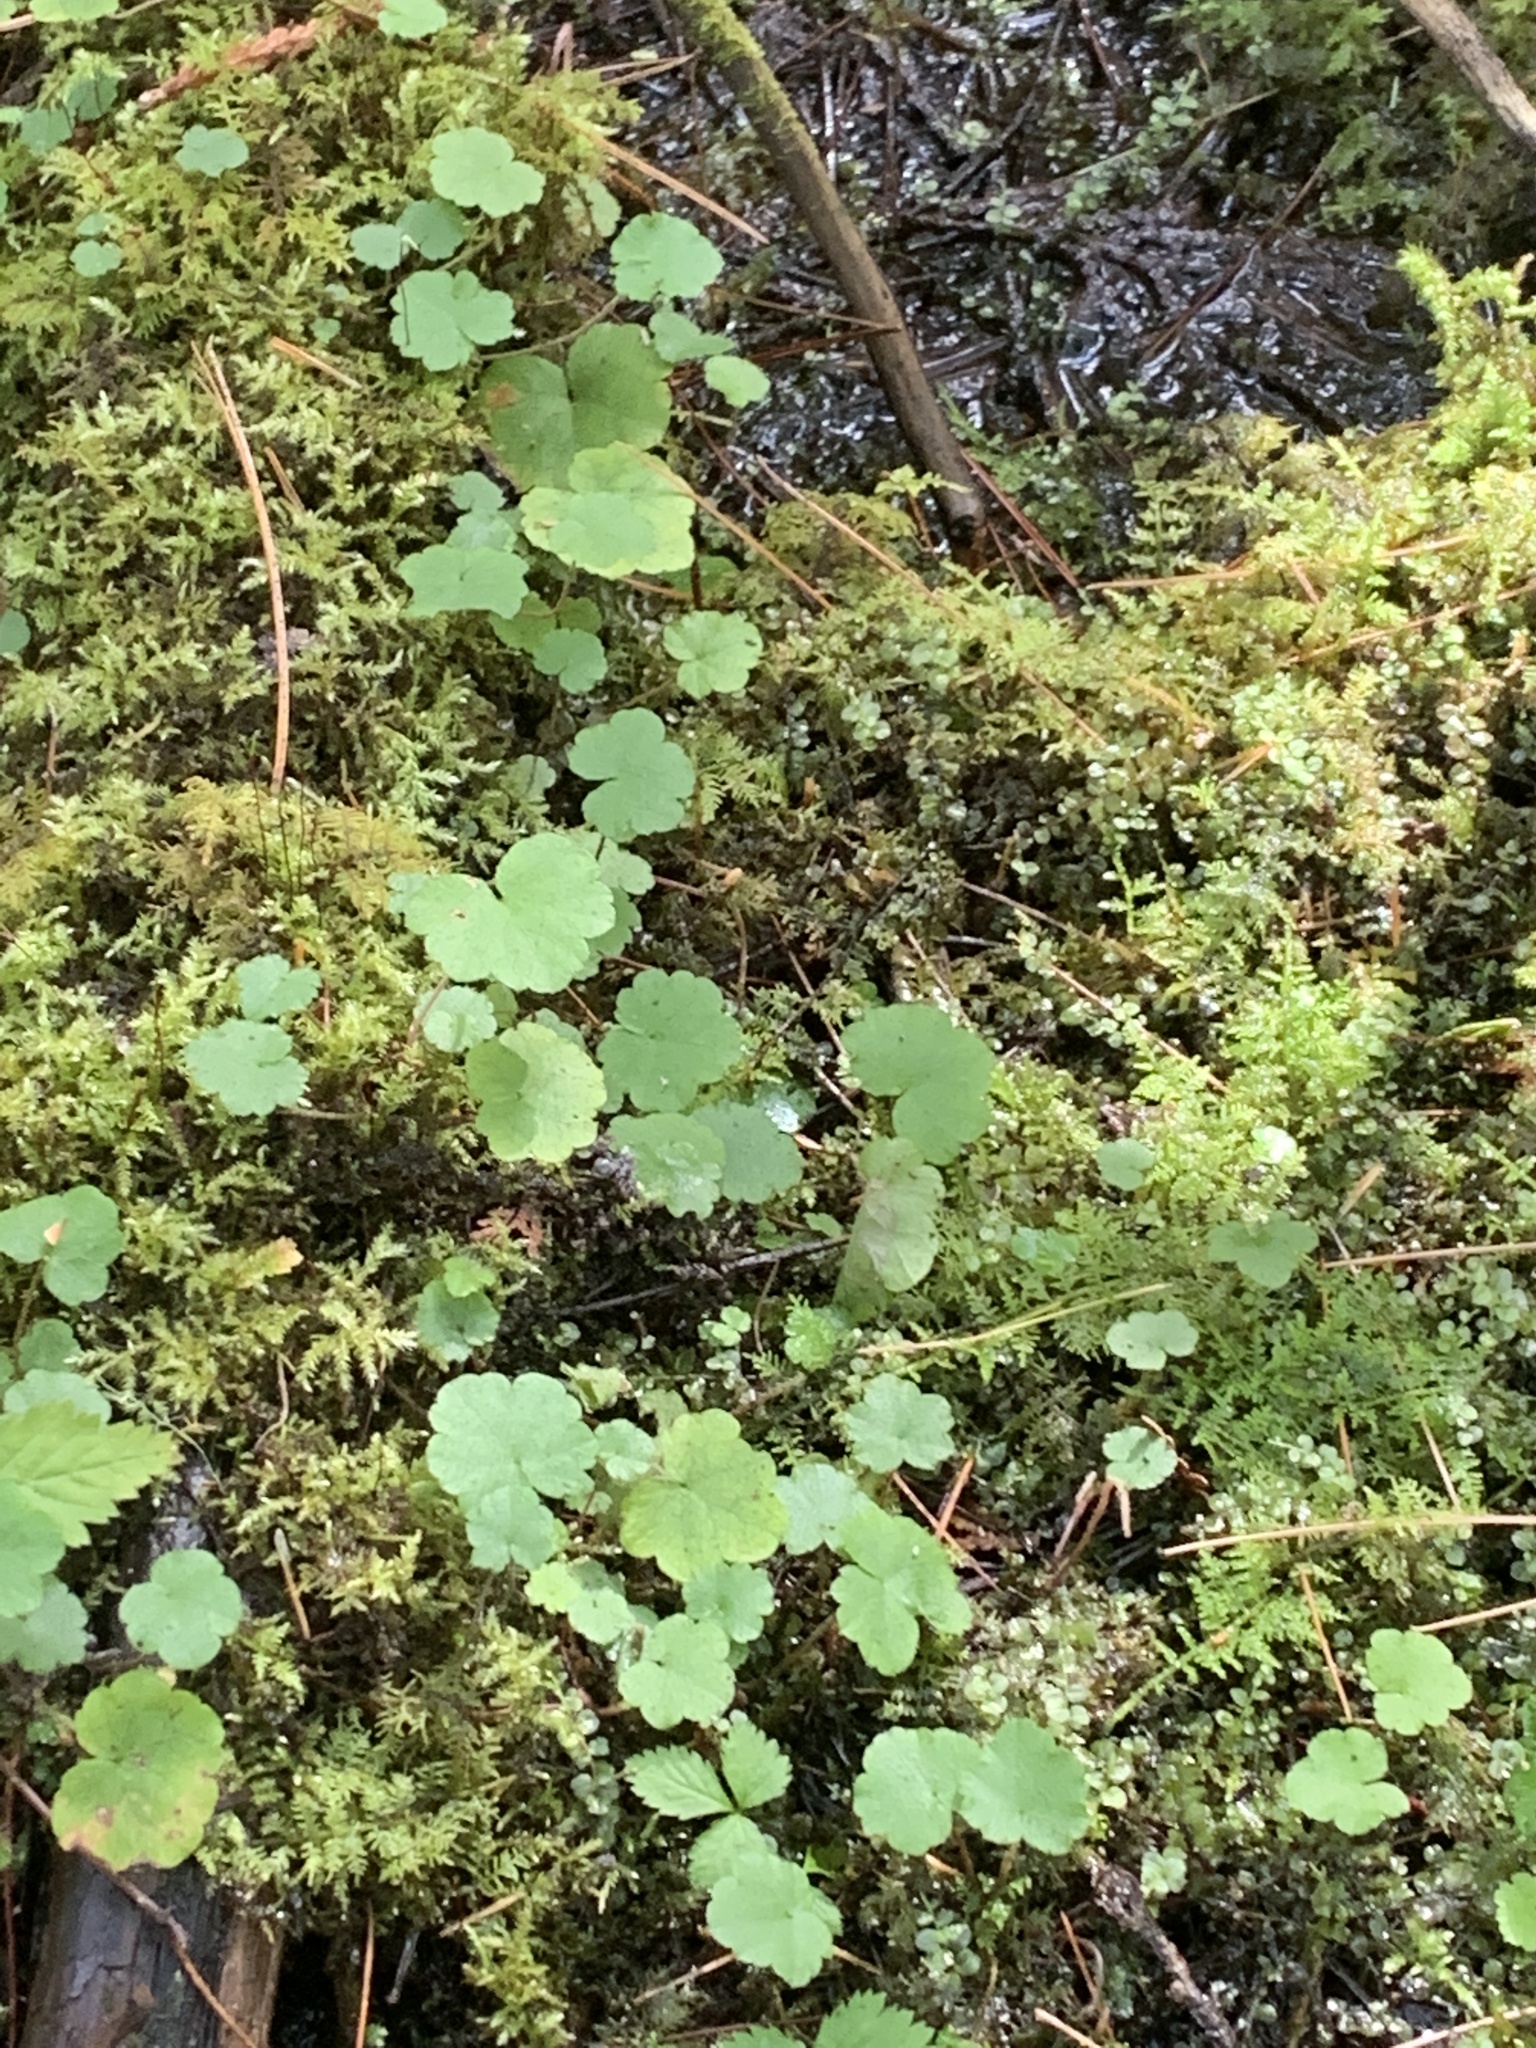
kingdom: Plantae
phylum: Tracheophyta
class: Magnoliopsida
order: Apiales
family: Araliaceae
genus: Hydrocotyle
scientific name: Hydrocotyle americana
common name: American water-pennywort
